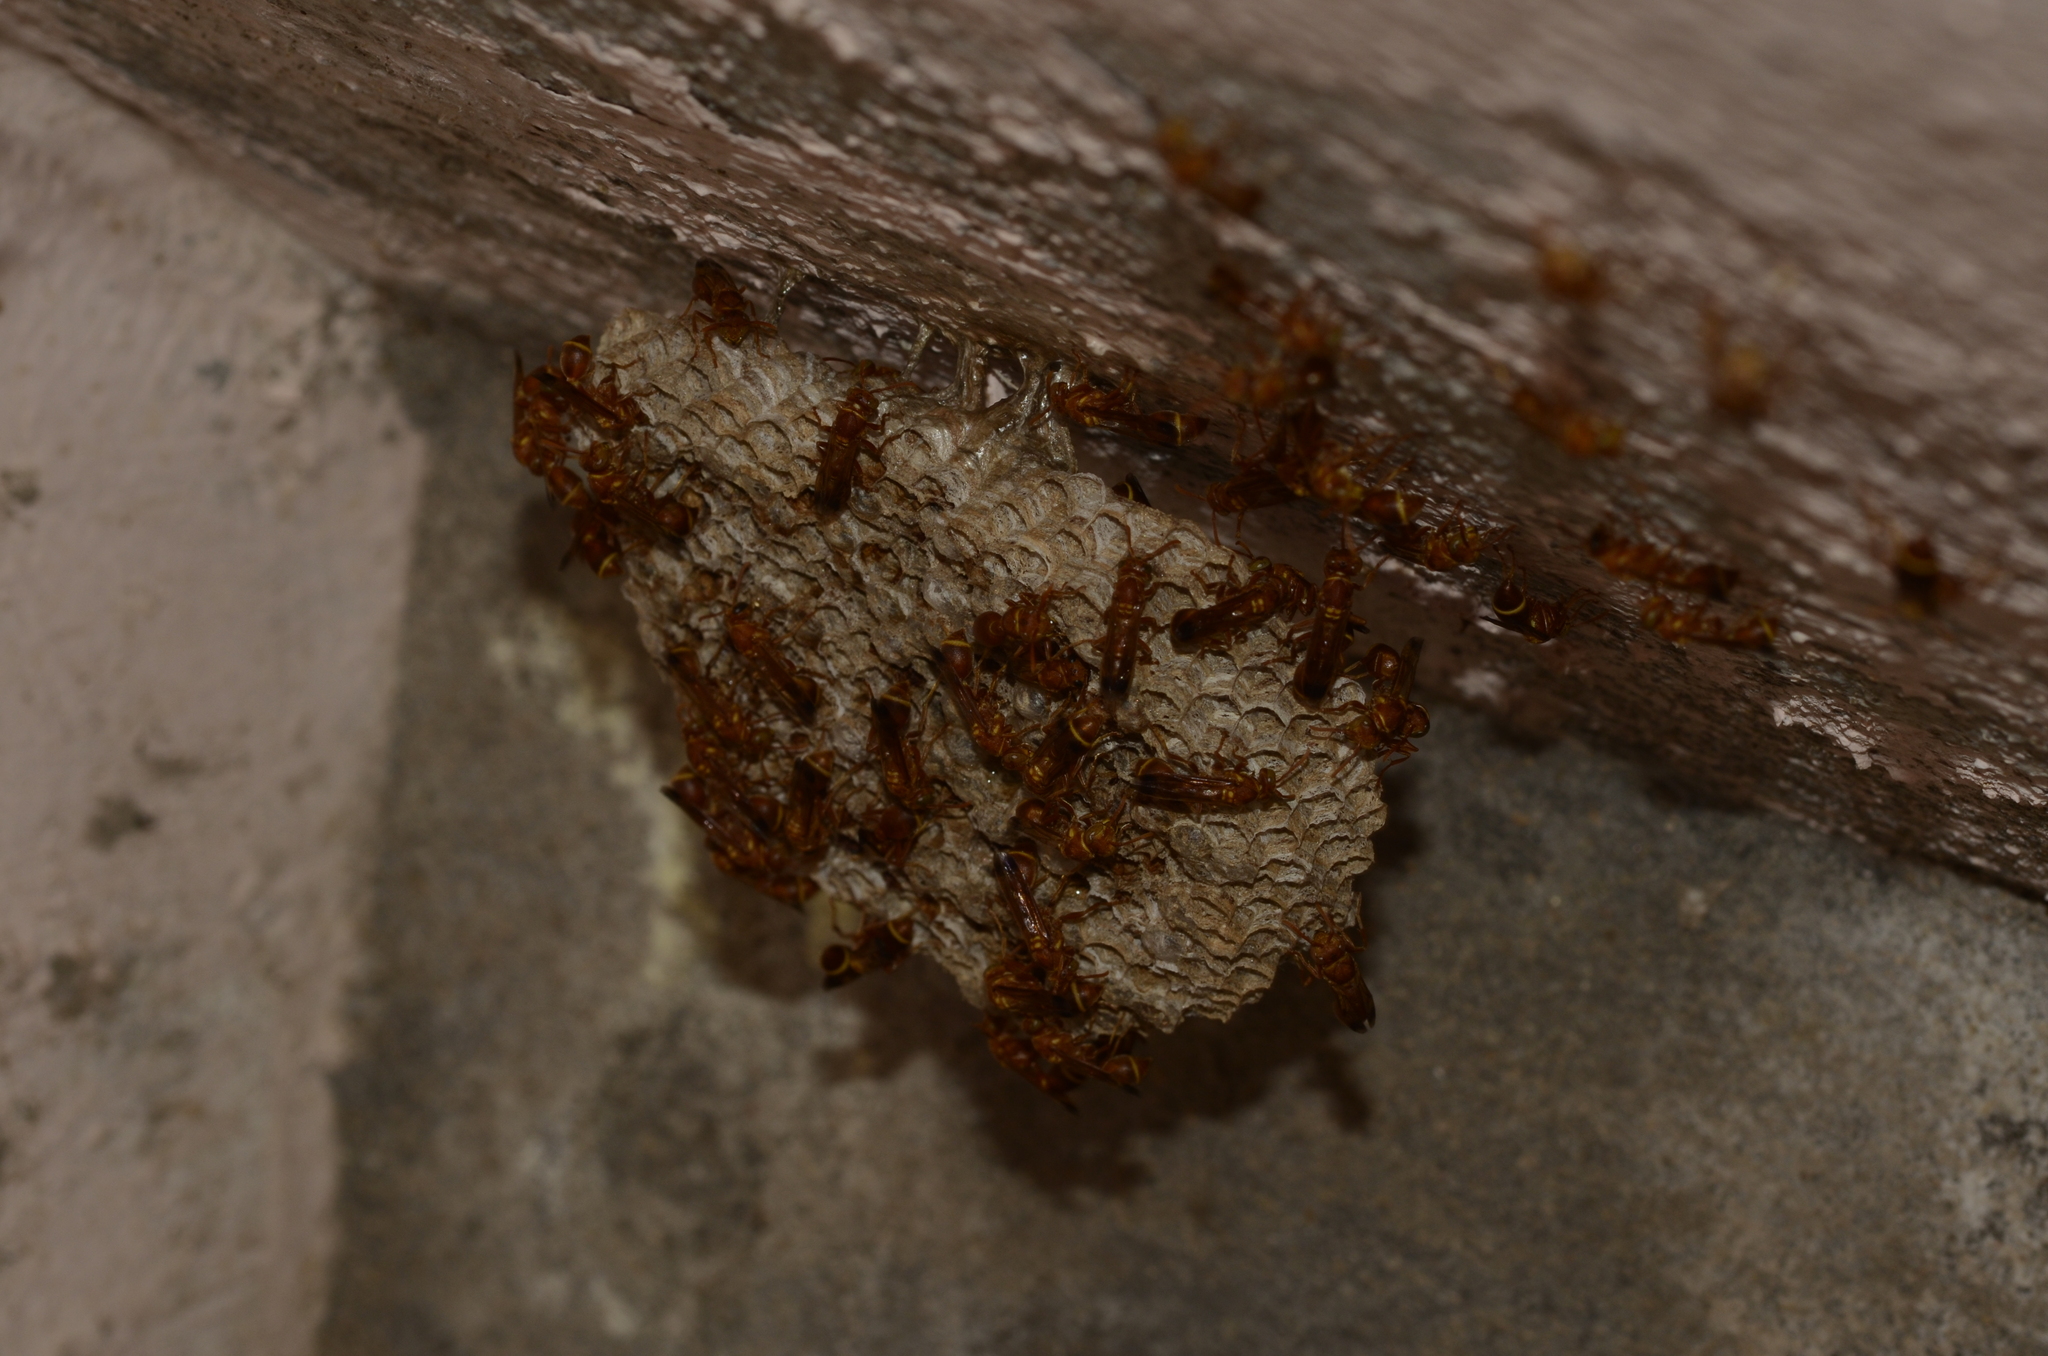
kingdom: Animalia
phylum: Arthropoda
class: Insecta
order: Hymenoptera
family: Vespidae
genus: Ropalidia
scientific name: Ropalidia marginata
